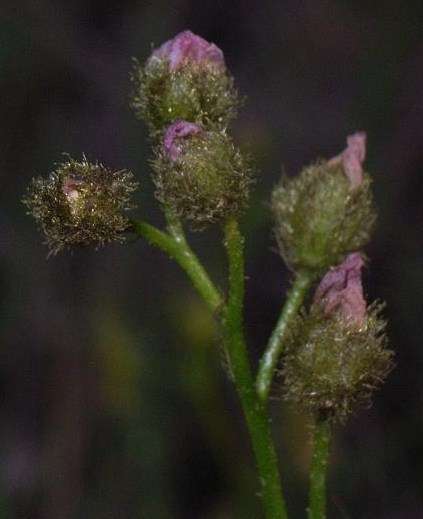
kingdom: Plantae
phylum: Tracheophyta
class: Magnoliopsida
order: Caryophyllales
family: Droseraceae
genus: Drosera
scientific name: Drosera gunniana
